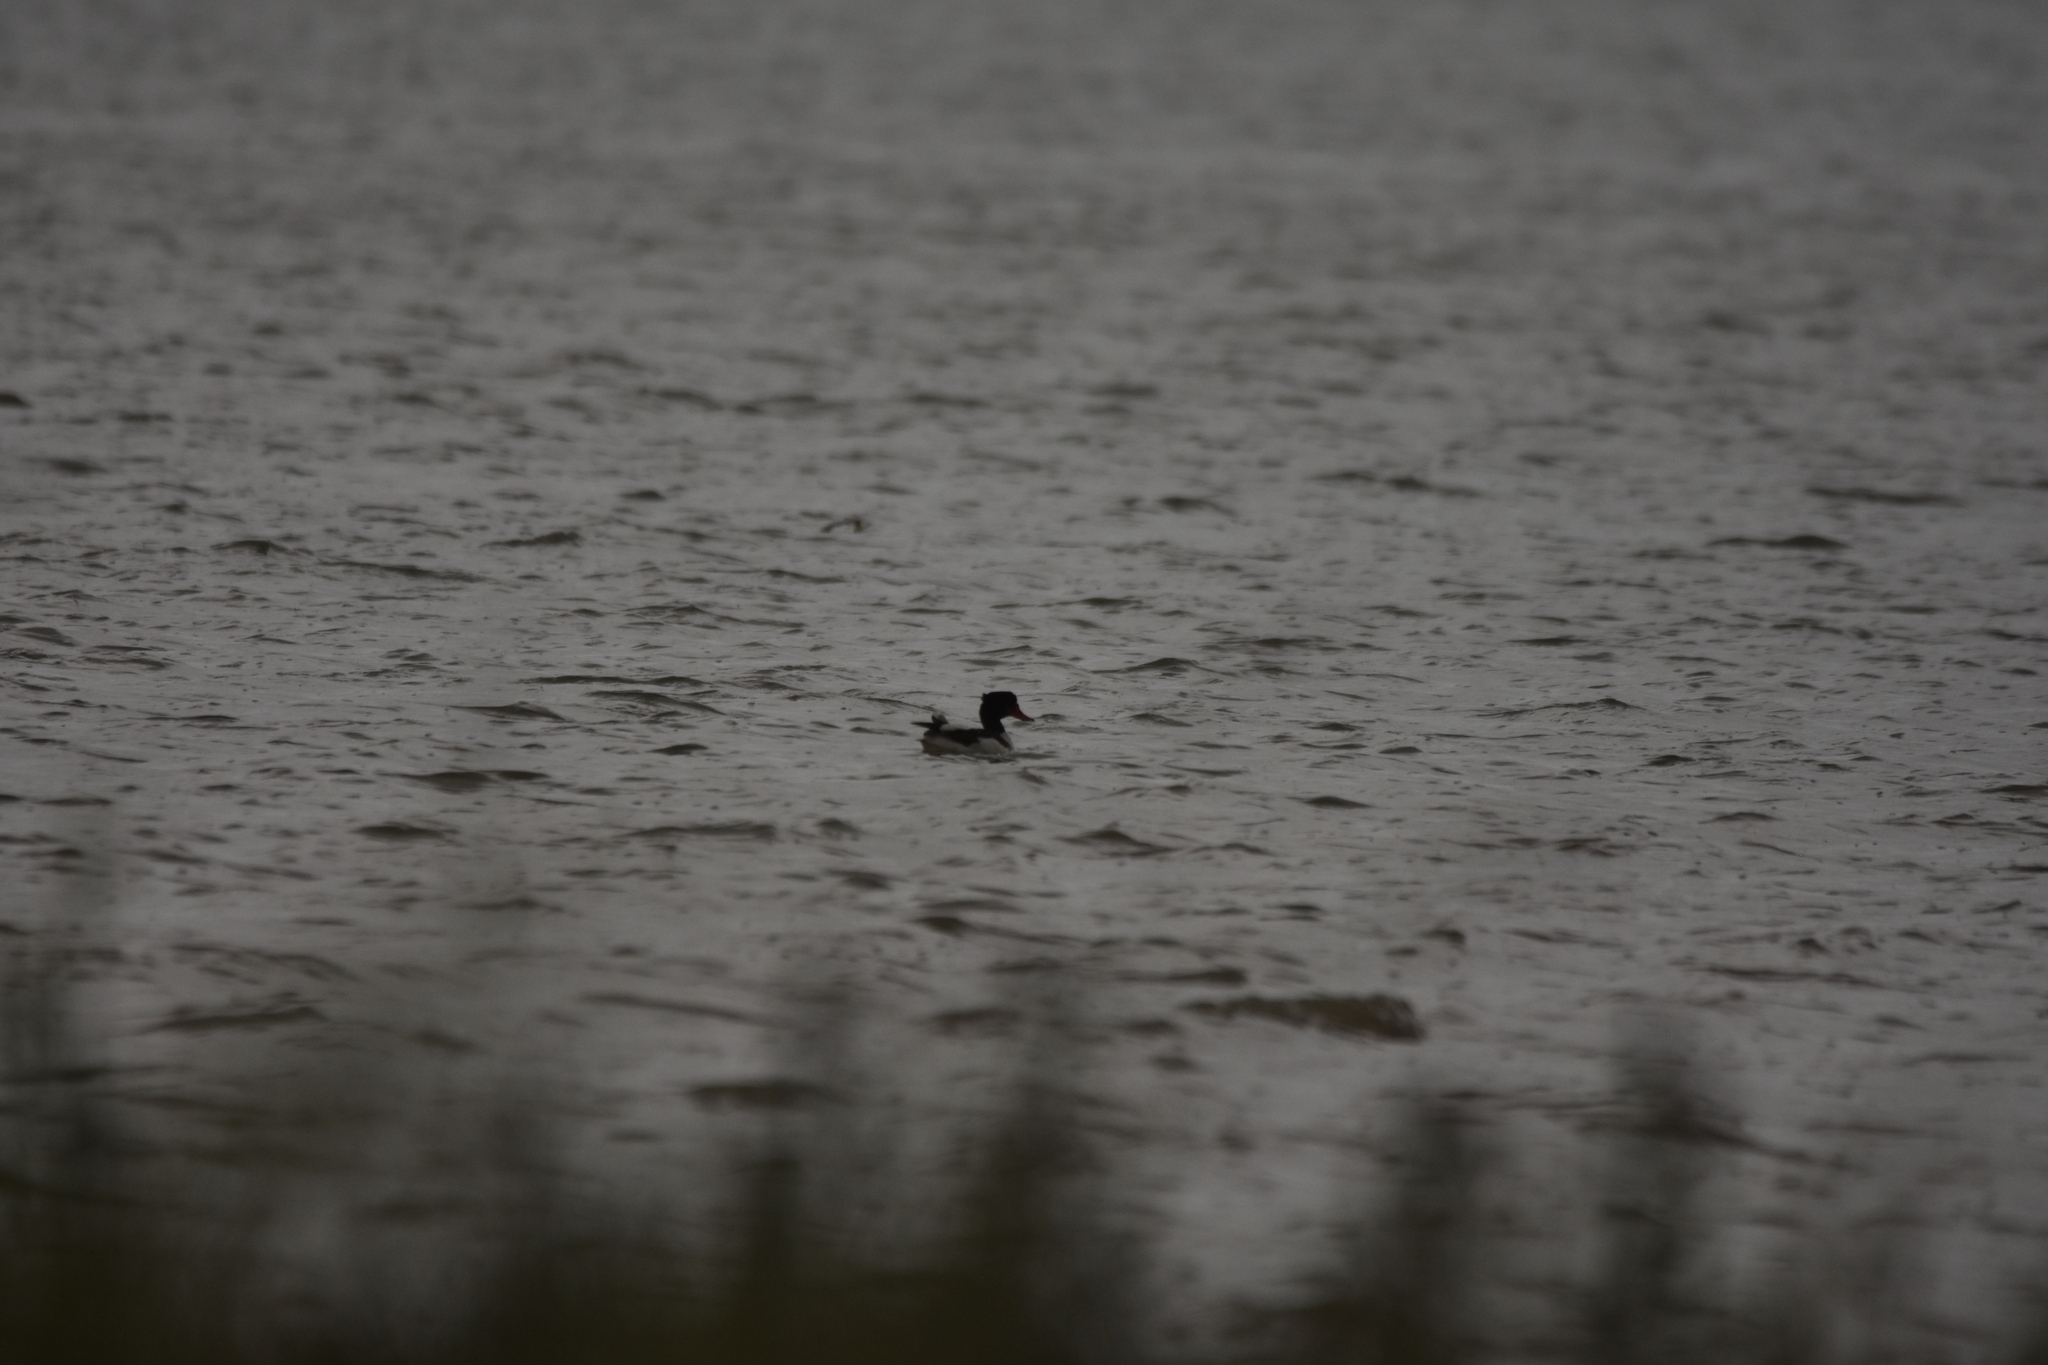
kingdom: Animalia
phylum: Chordata
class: Aves
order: Anseriformes
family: Anatidae
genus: Tadorna
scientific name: Tadorna tadorna
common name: Common shelduck
